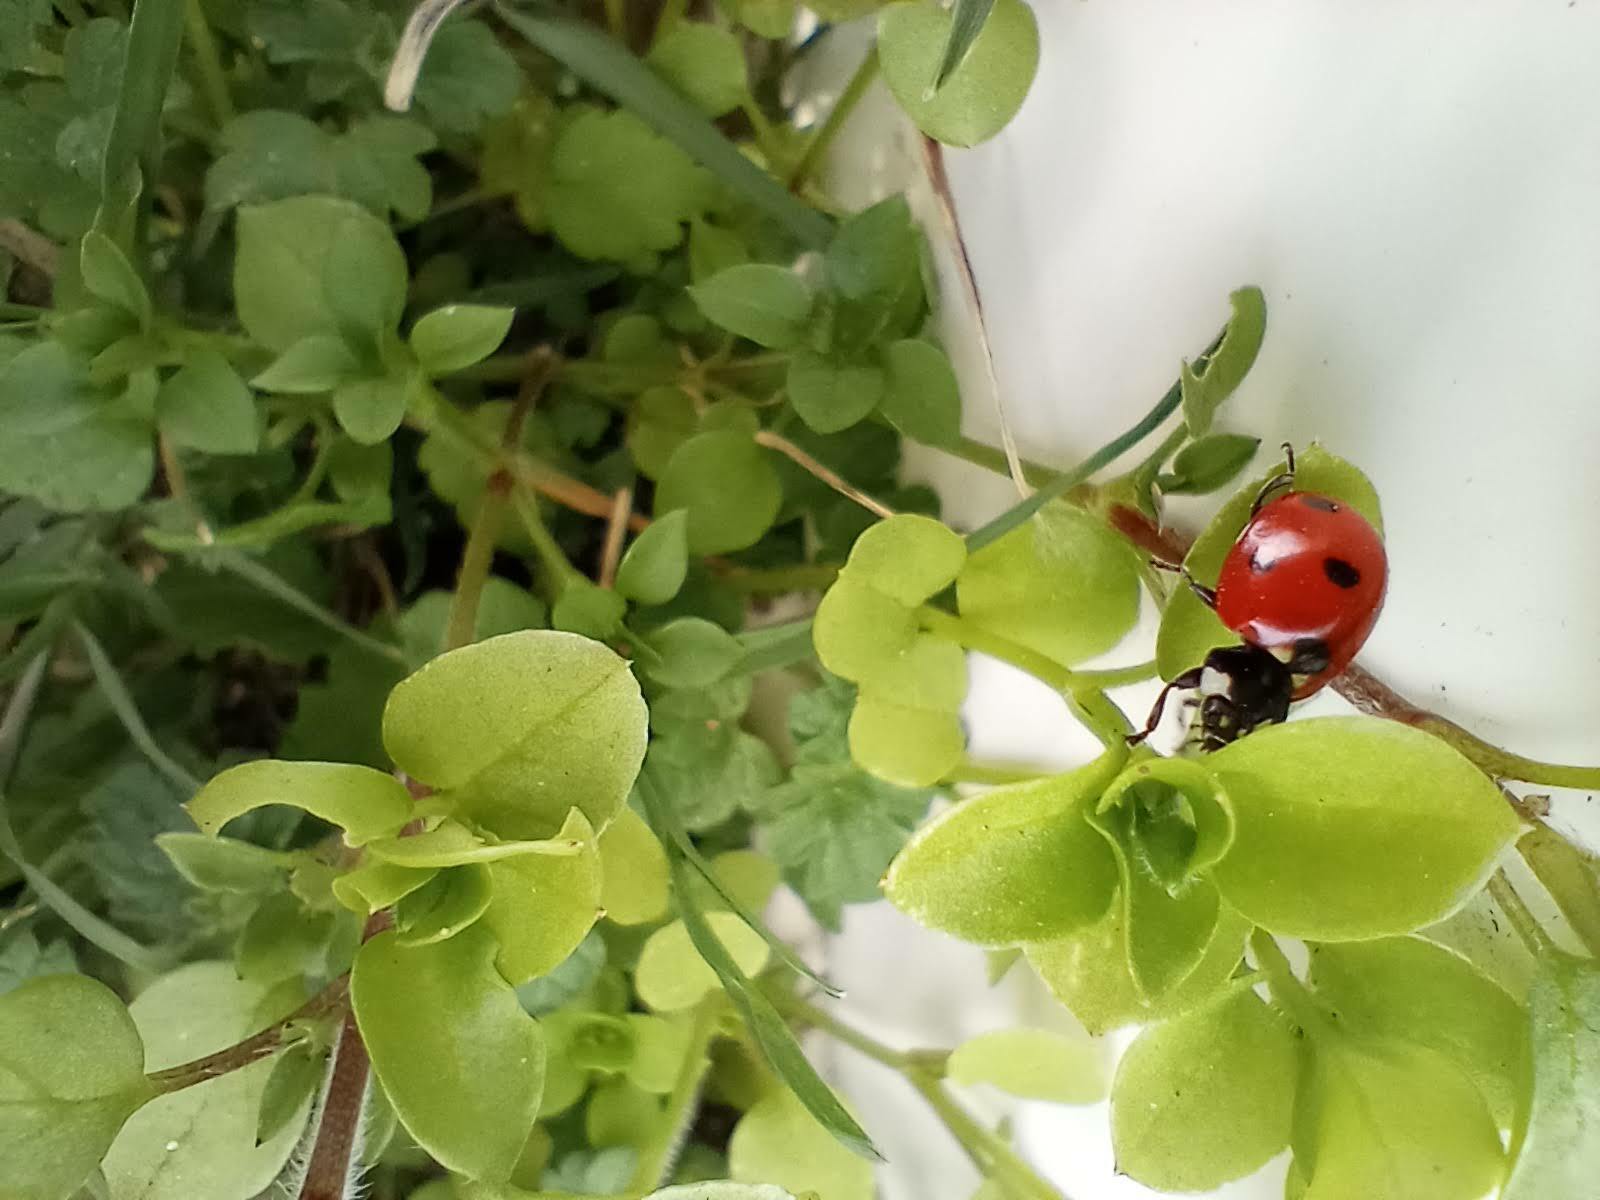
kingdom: Animalia
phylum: Arthropoda
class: Insecta
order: Coleoptera
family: Coccinellidae
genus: Coccinella
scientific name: Coccinella septempunctata
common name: Sevenspotted lady beetle
